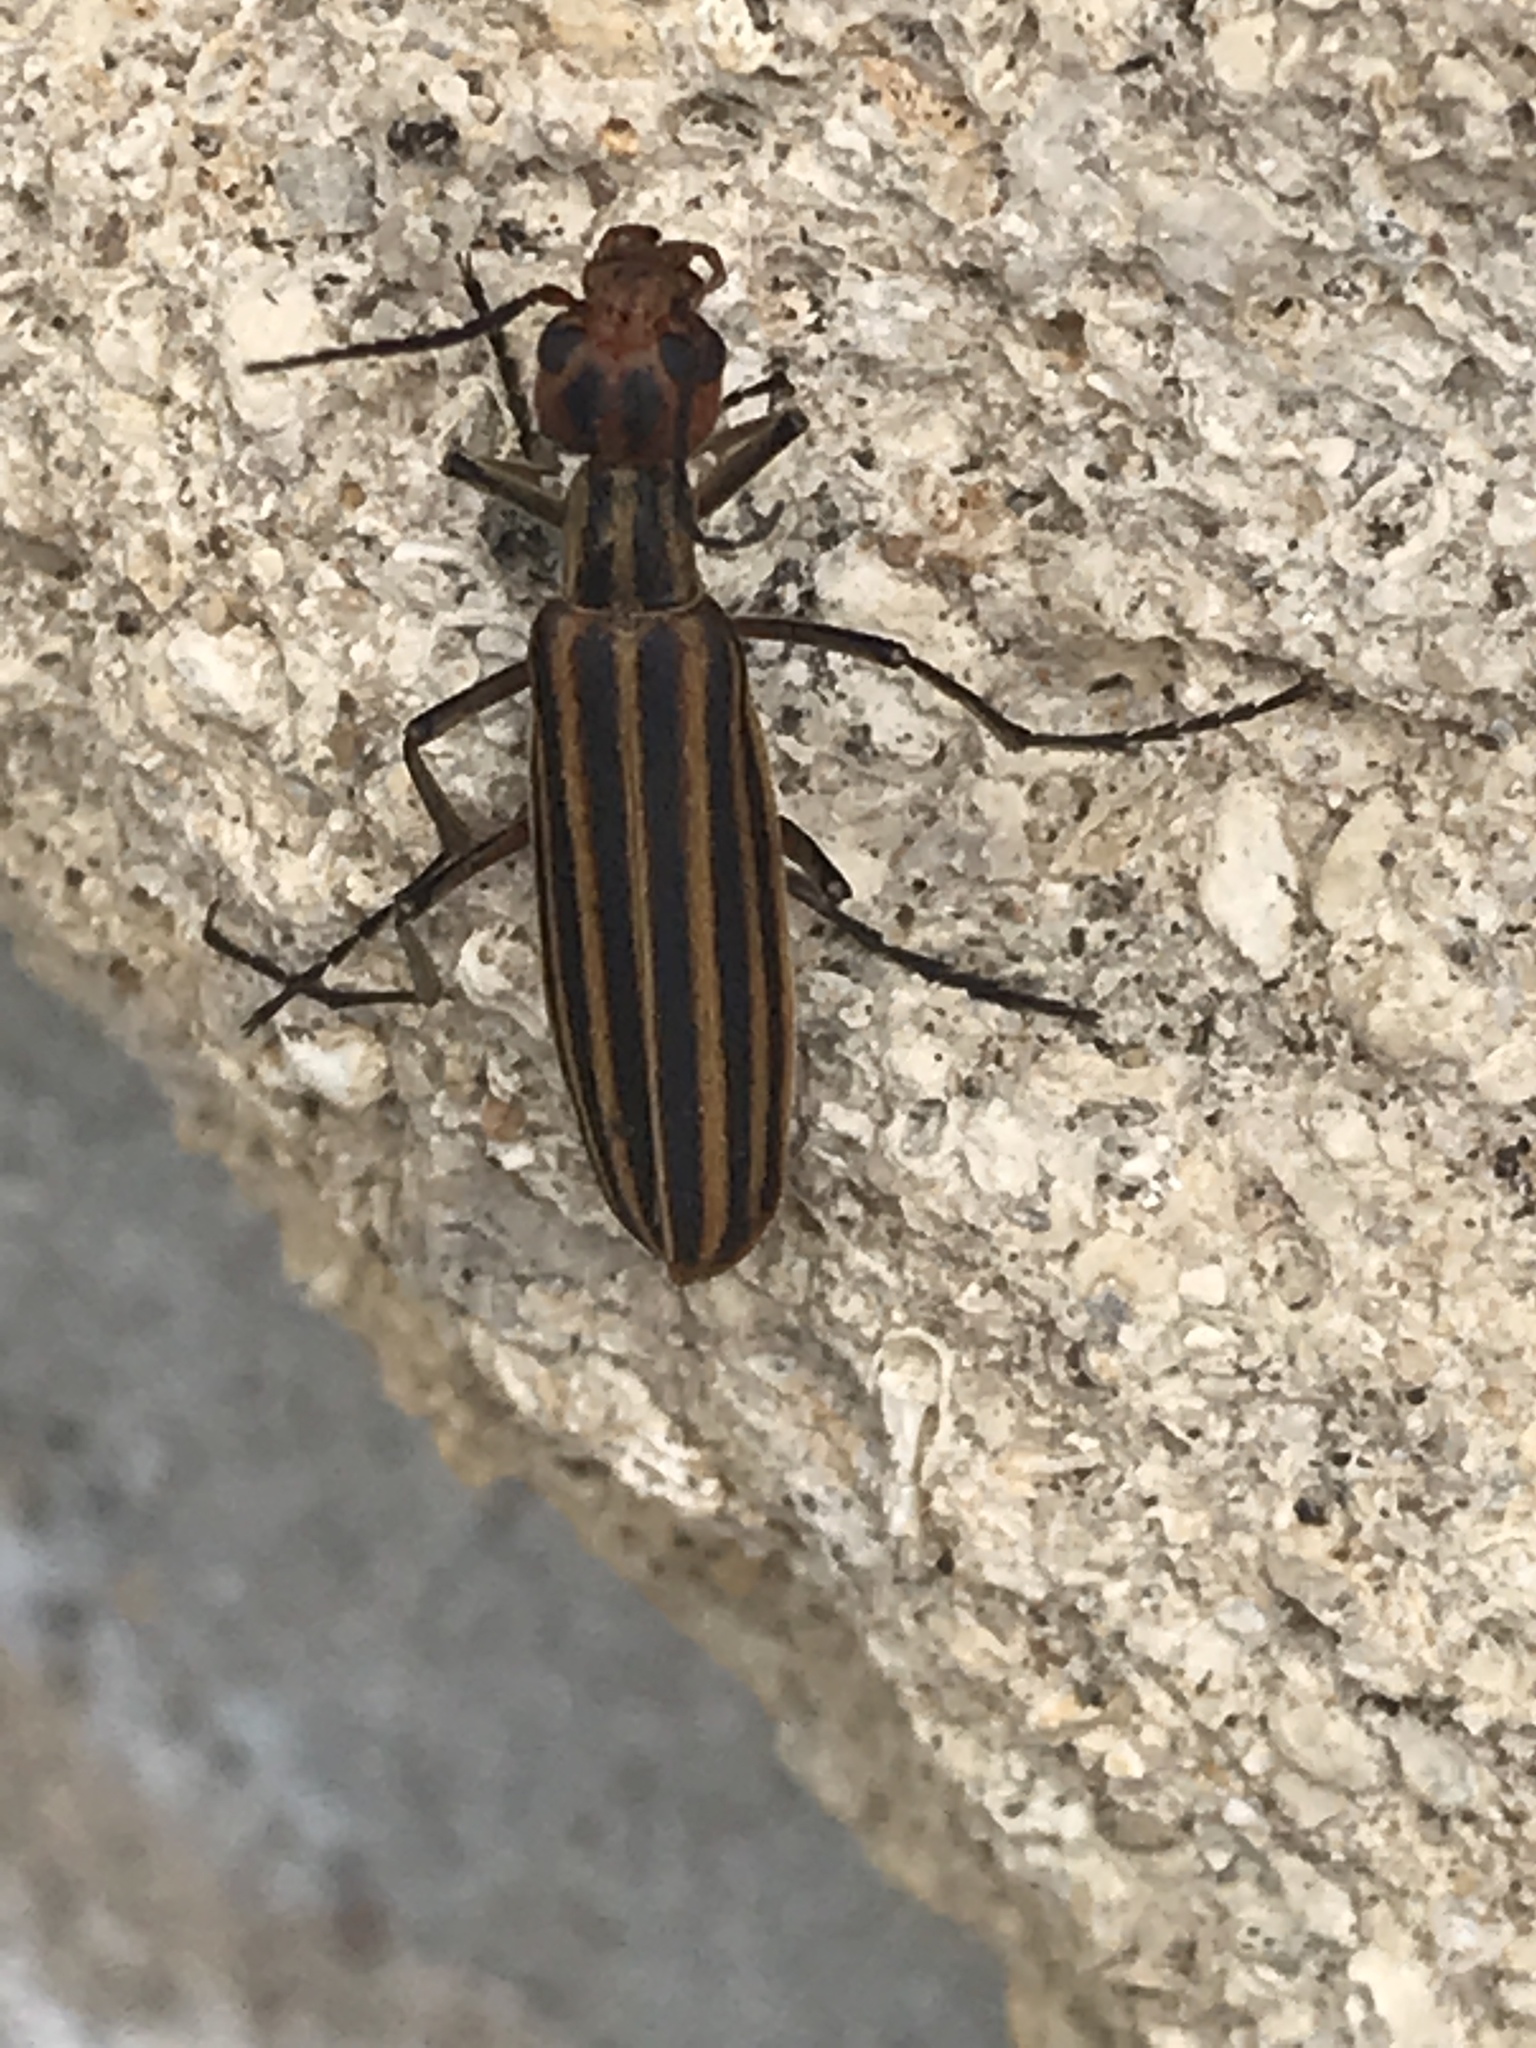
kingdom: Animalia
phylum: Arthropoda
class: Insecta
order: Coleoptera
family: Meloidae
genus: Epicauta
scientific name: Epicauta vittata
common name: Old-fashioned potato beetle
